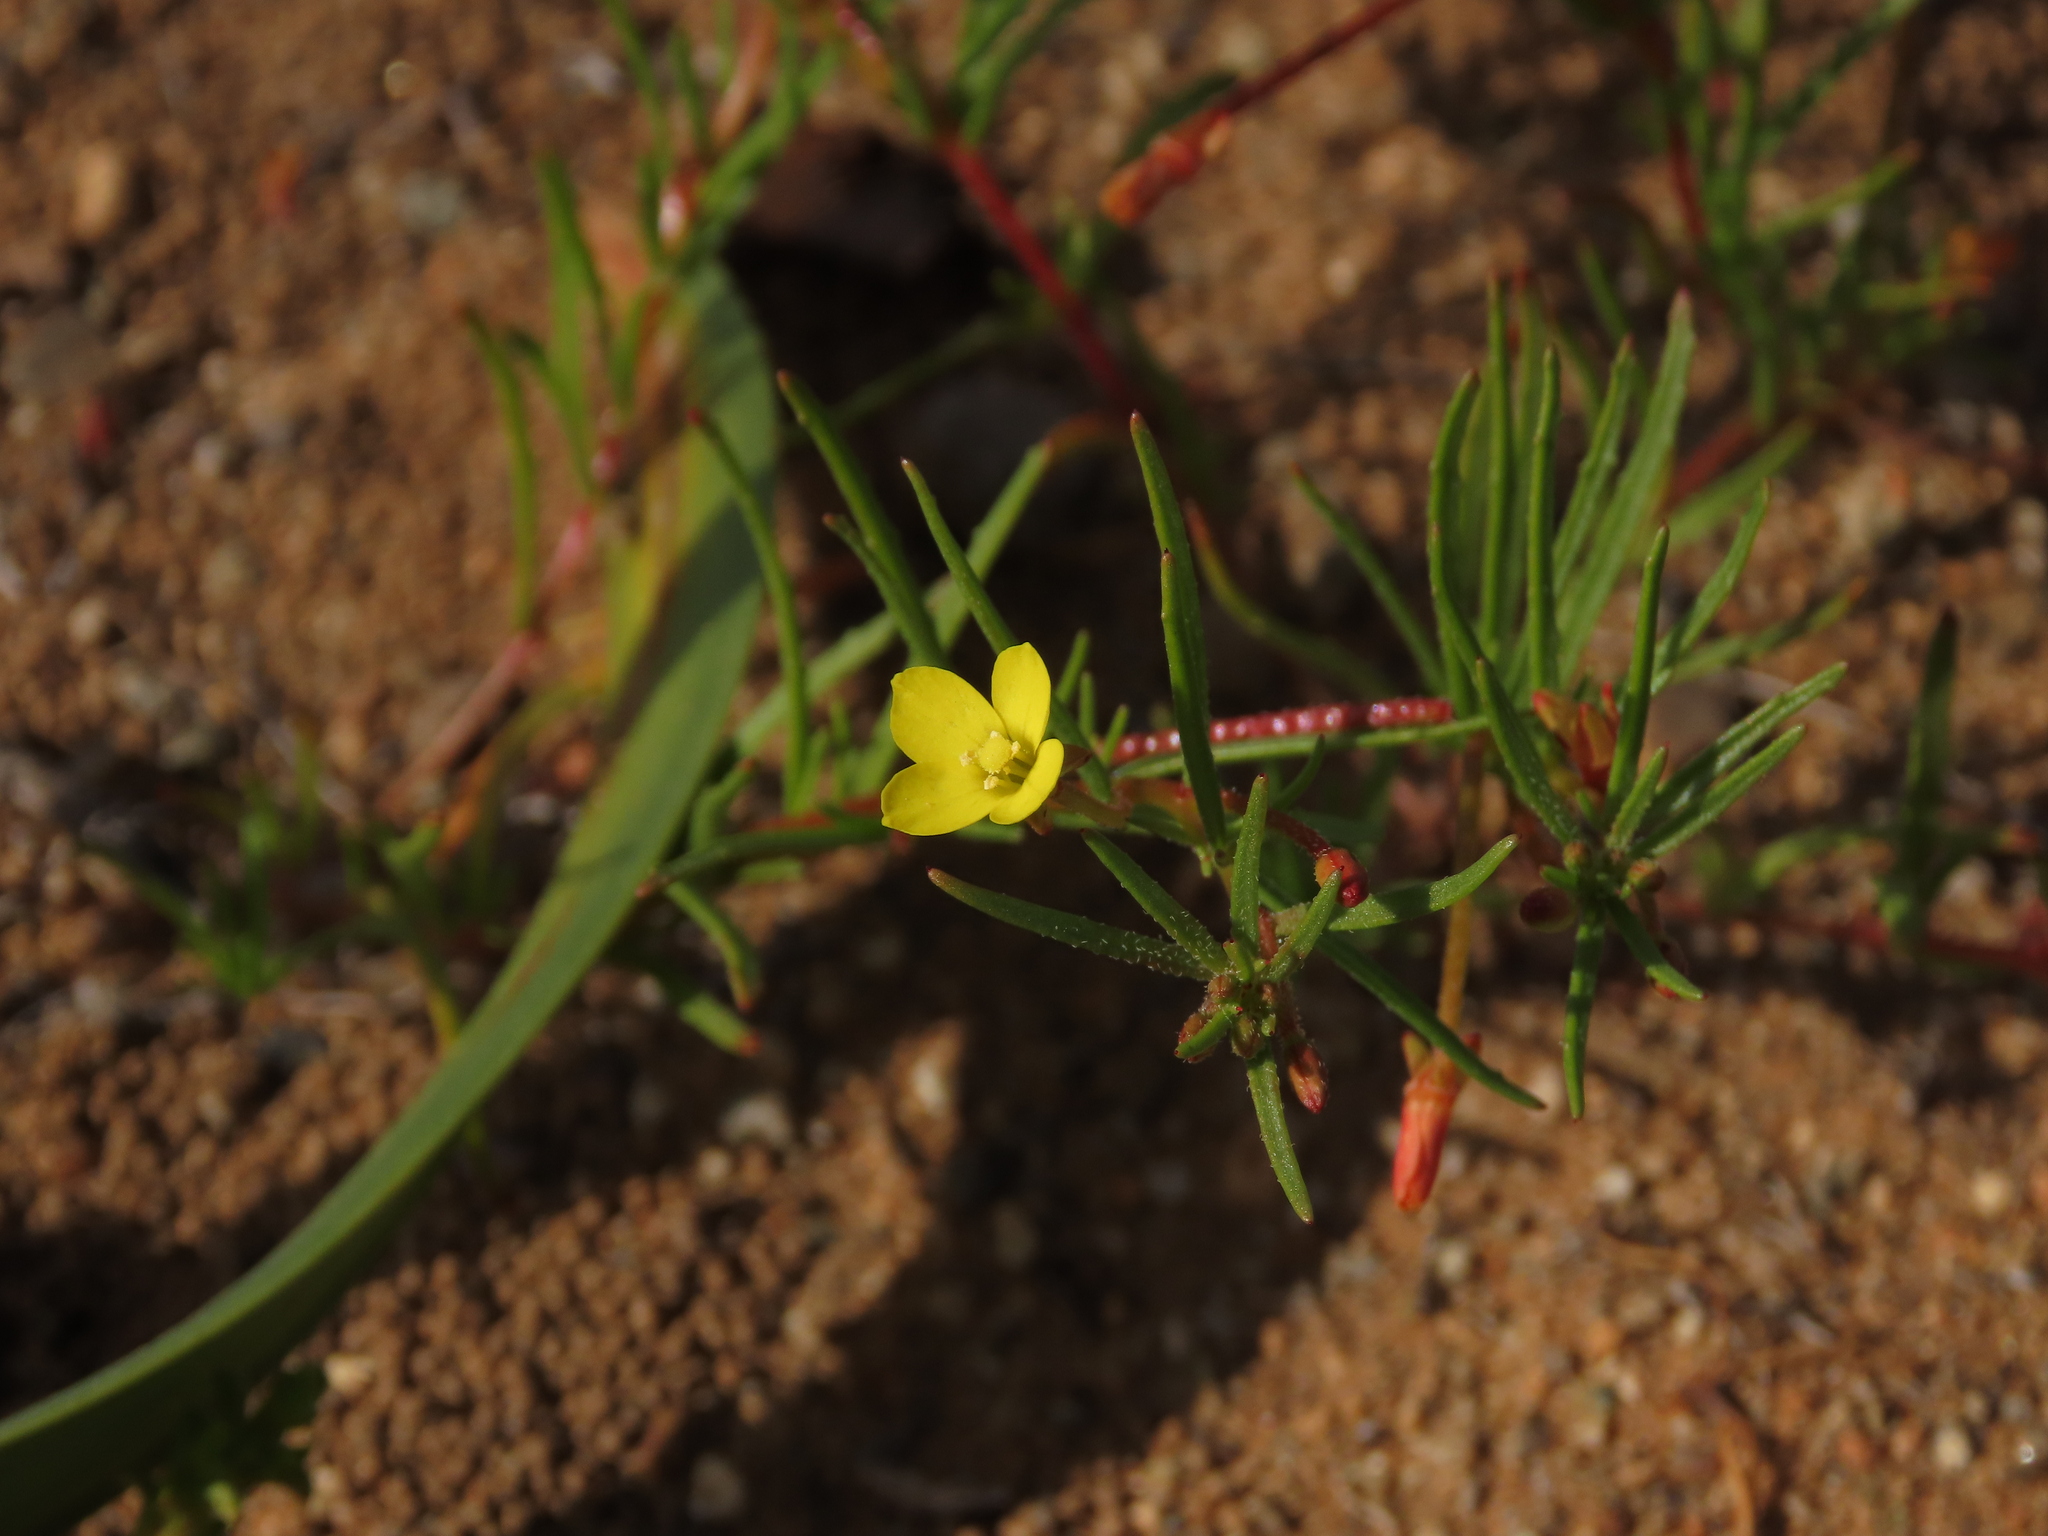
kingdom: Plantae
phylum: Tracheophyta
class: Magnoliopsida
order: Myrtales
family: Onagraceae
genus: Camissonia
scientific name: Camissonia dentata
